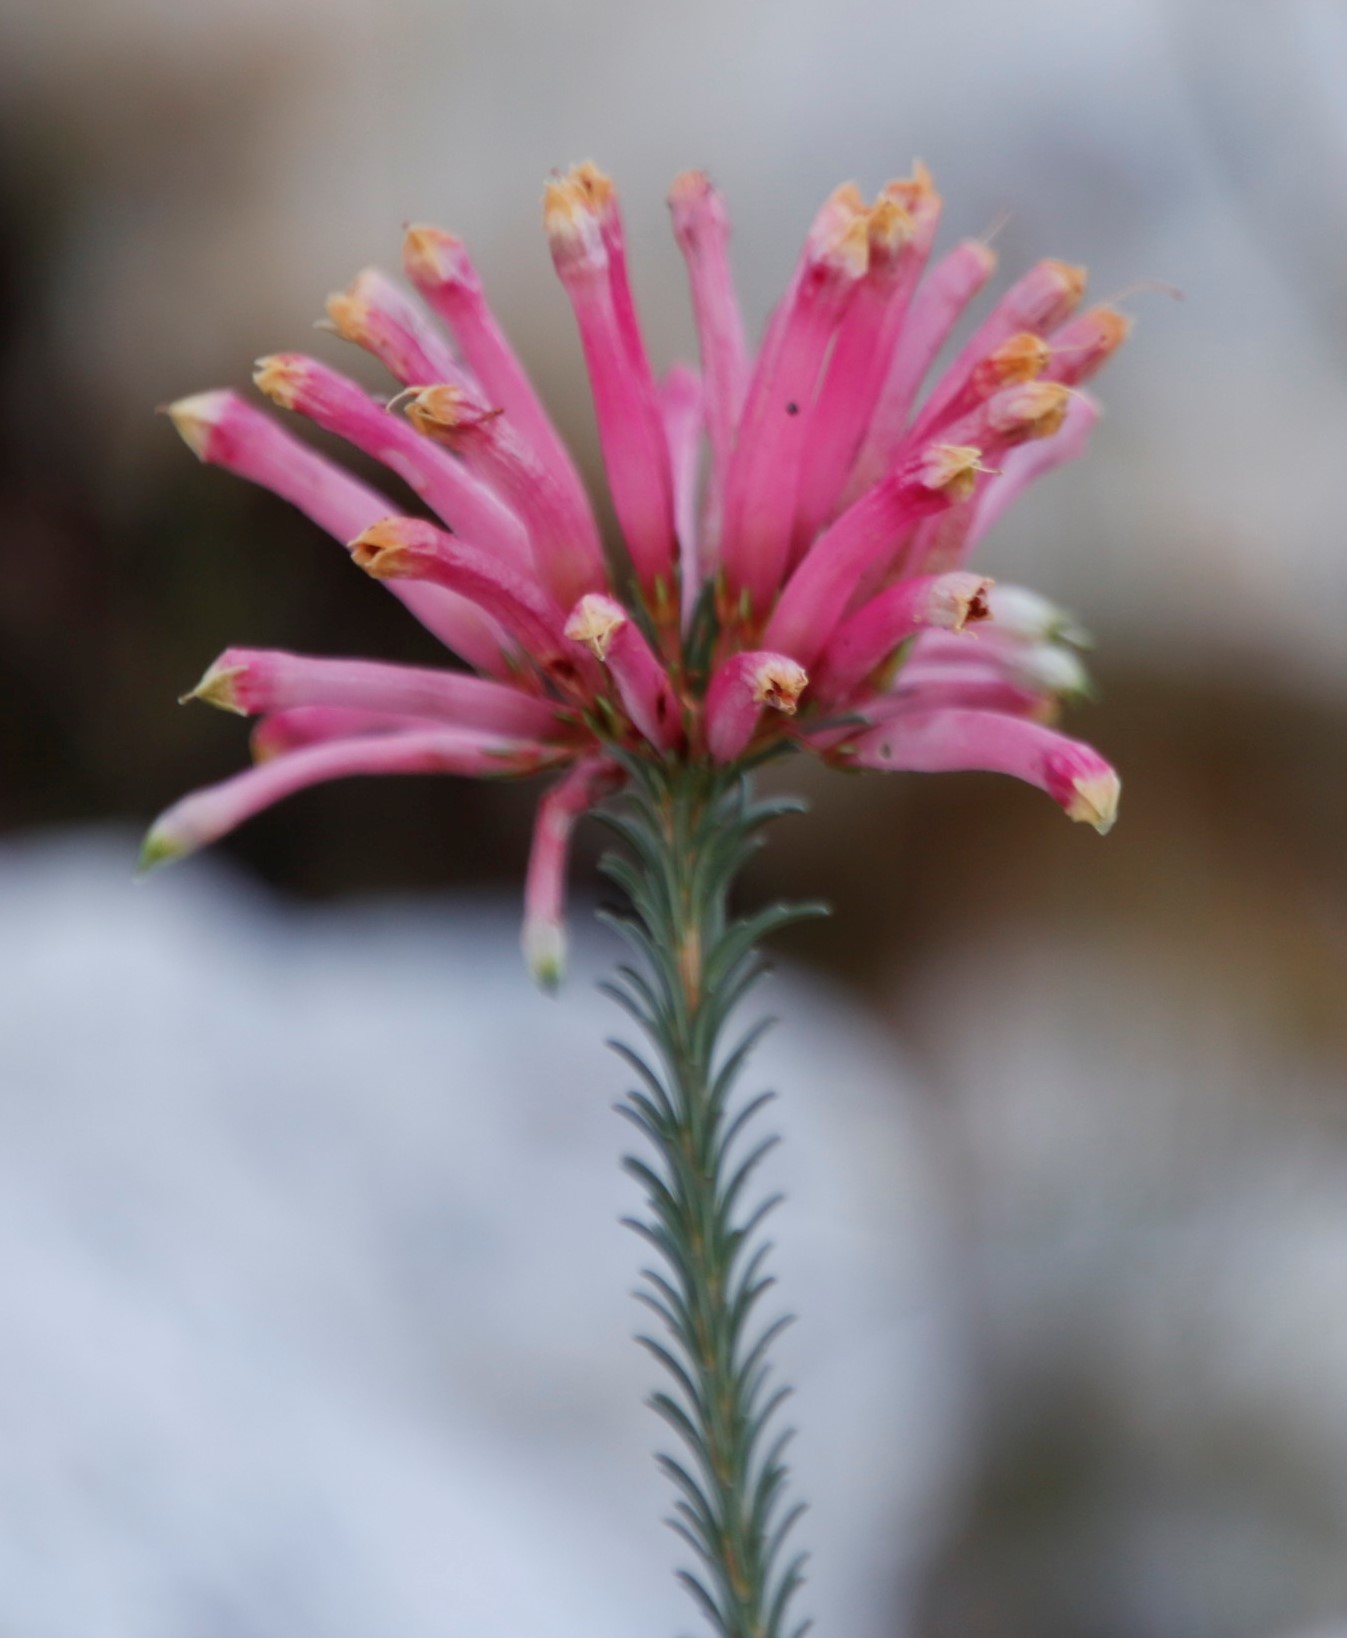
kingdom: Plantae
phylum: Tracheophyta
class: Magnoliopsida
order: Ericales
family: Ericaceae
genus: Erica
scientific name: Erica fascicularis
